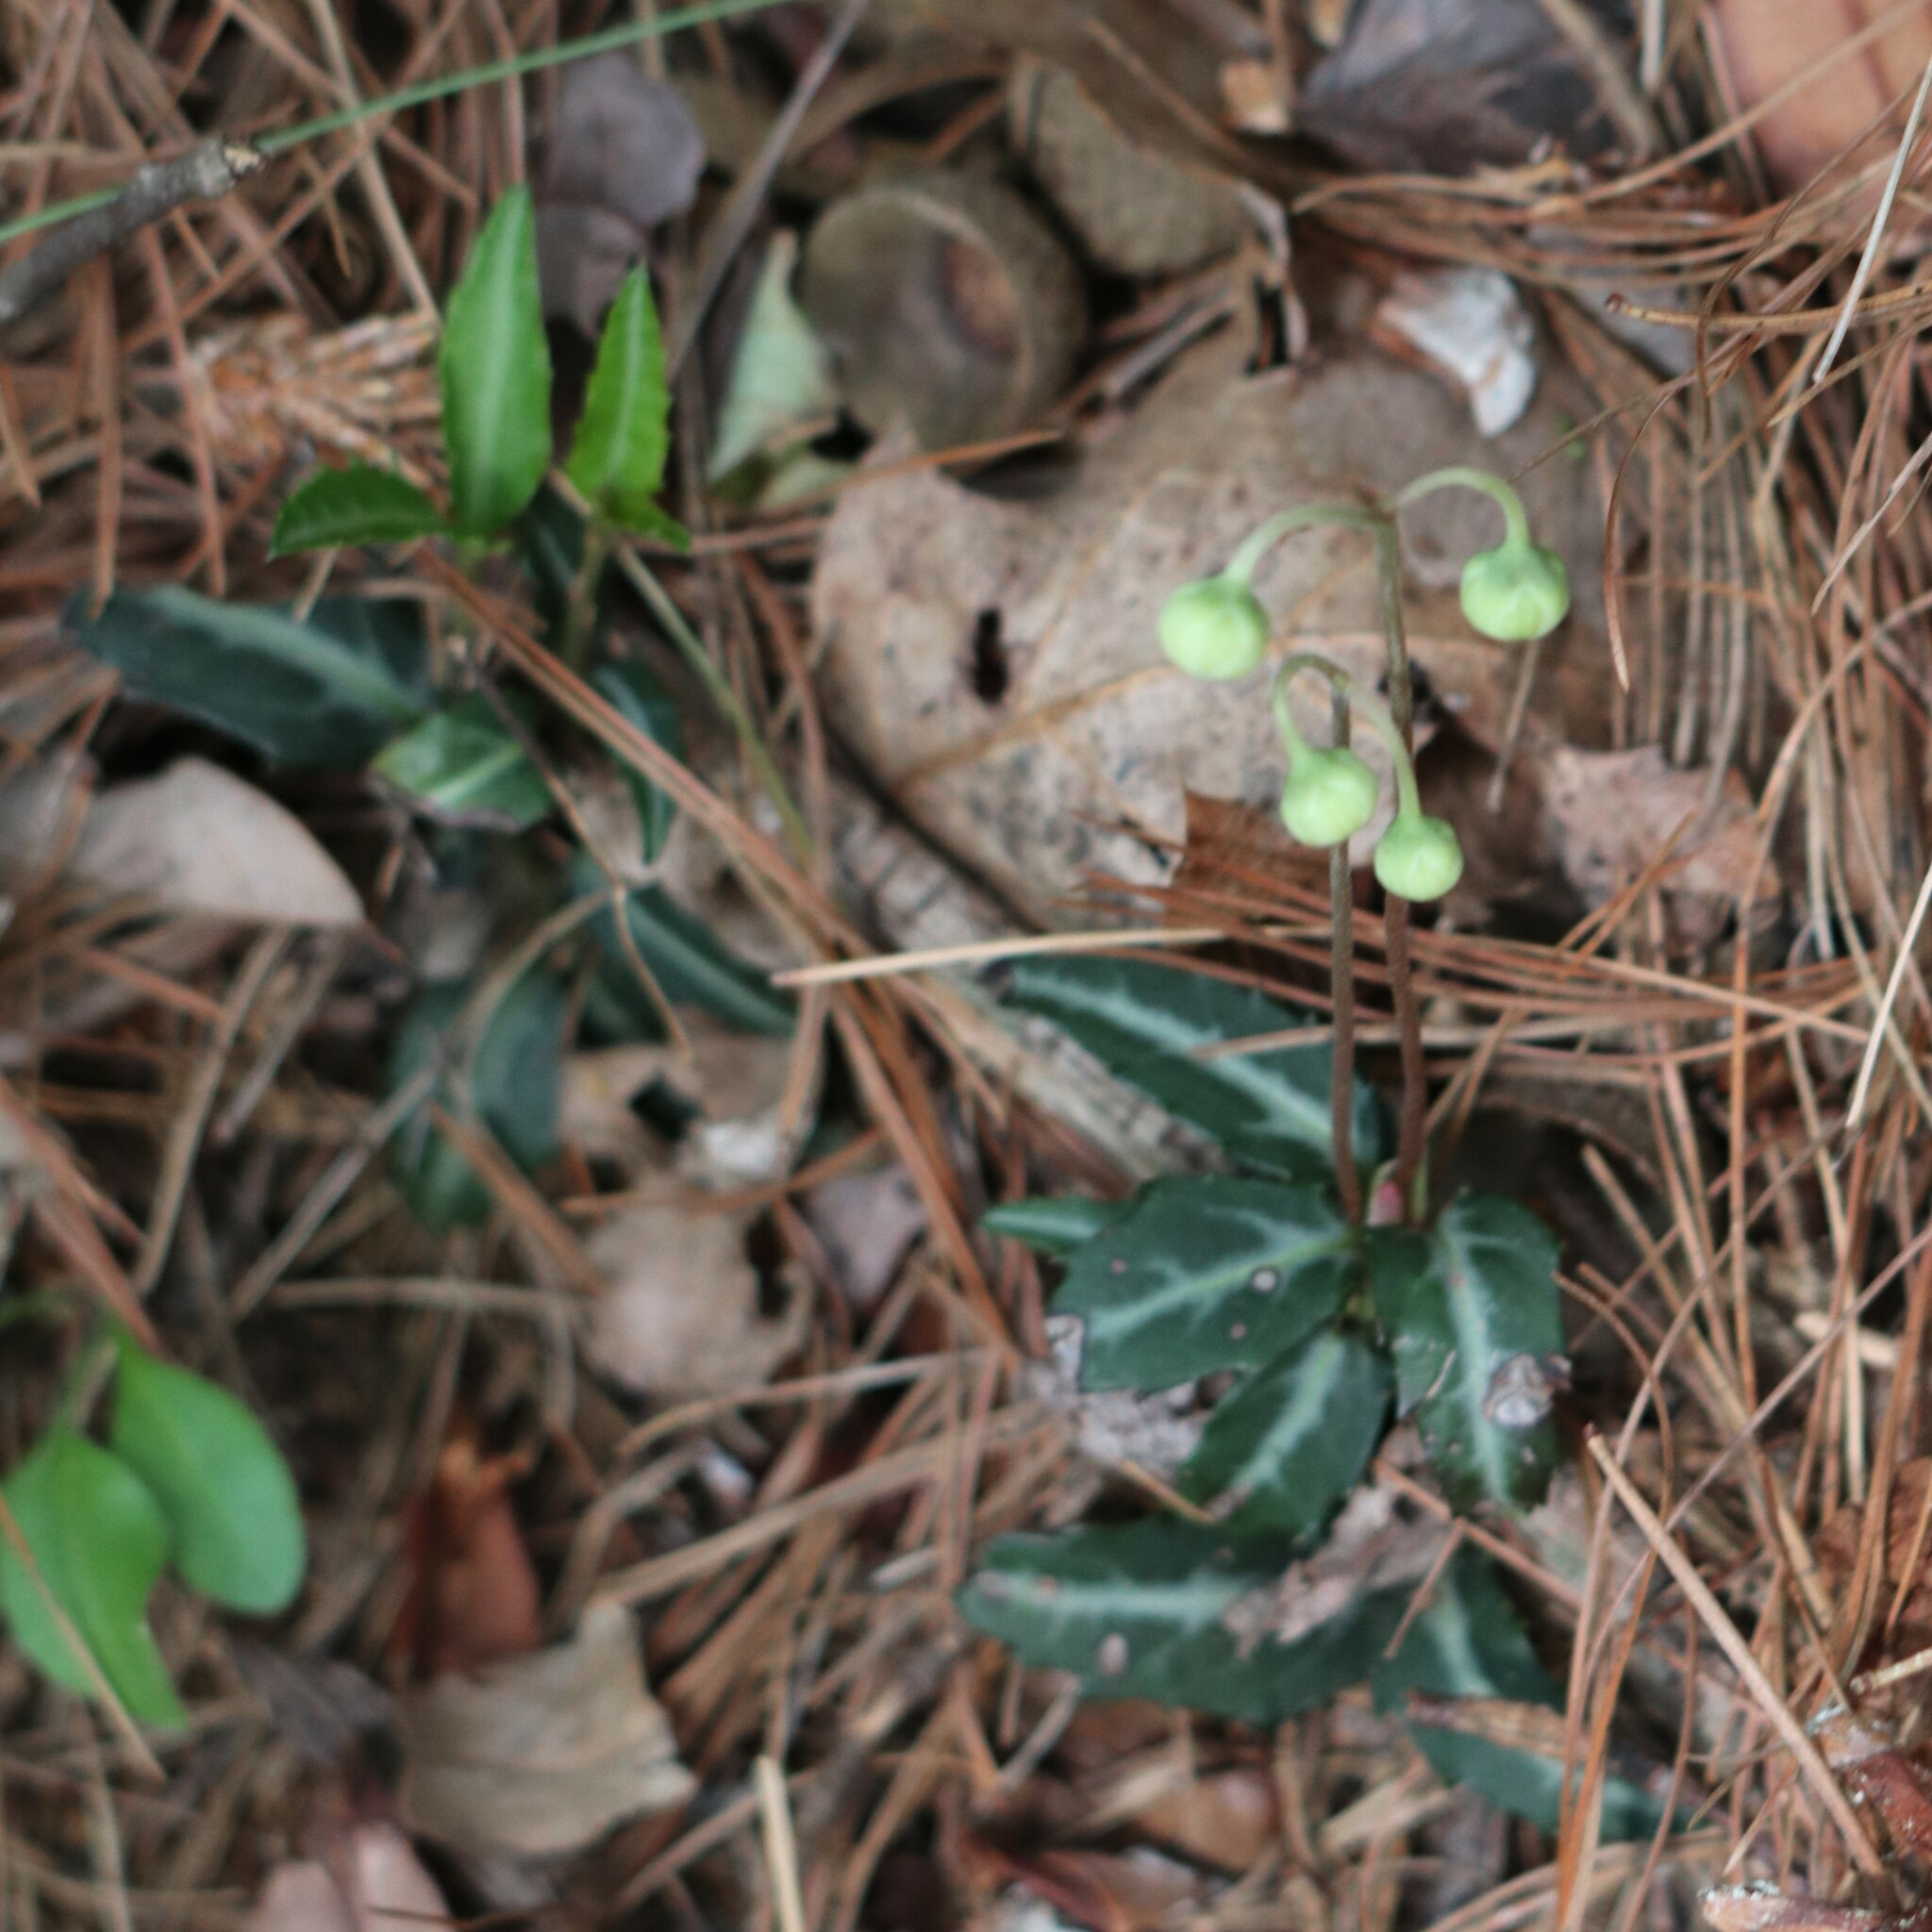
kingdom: Plantae
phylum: Tracheophyta
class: Magnoliopsida
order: Ericales
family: Ericaceae
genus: Chimaphila
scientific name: Chimaphila maculata
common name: Spotted pipsissewa
